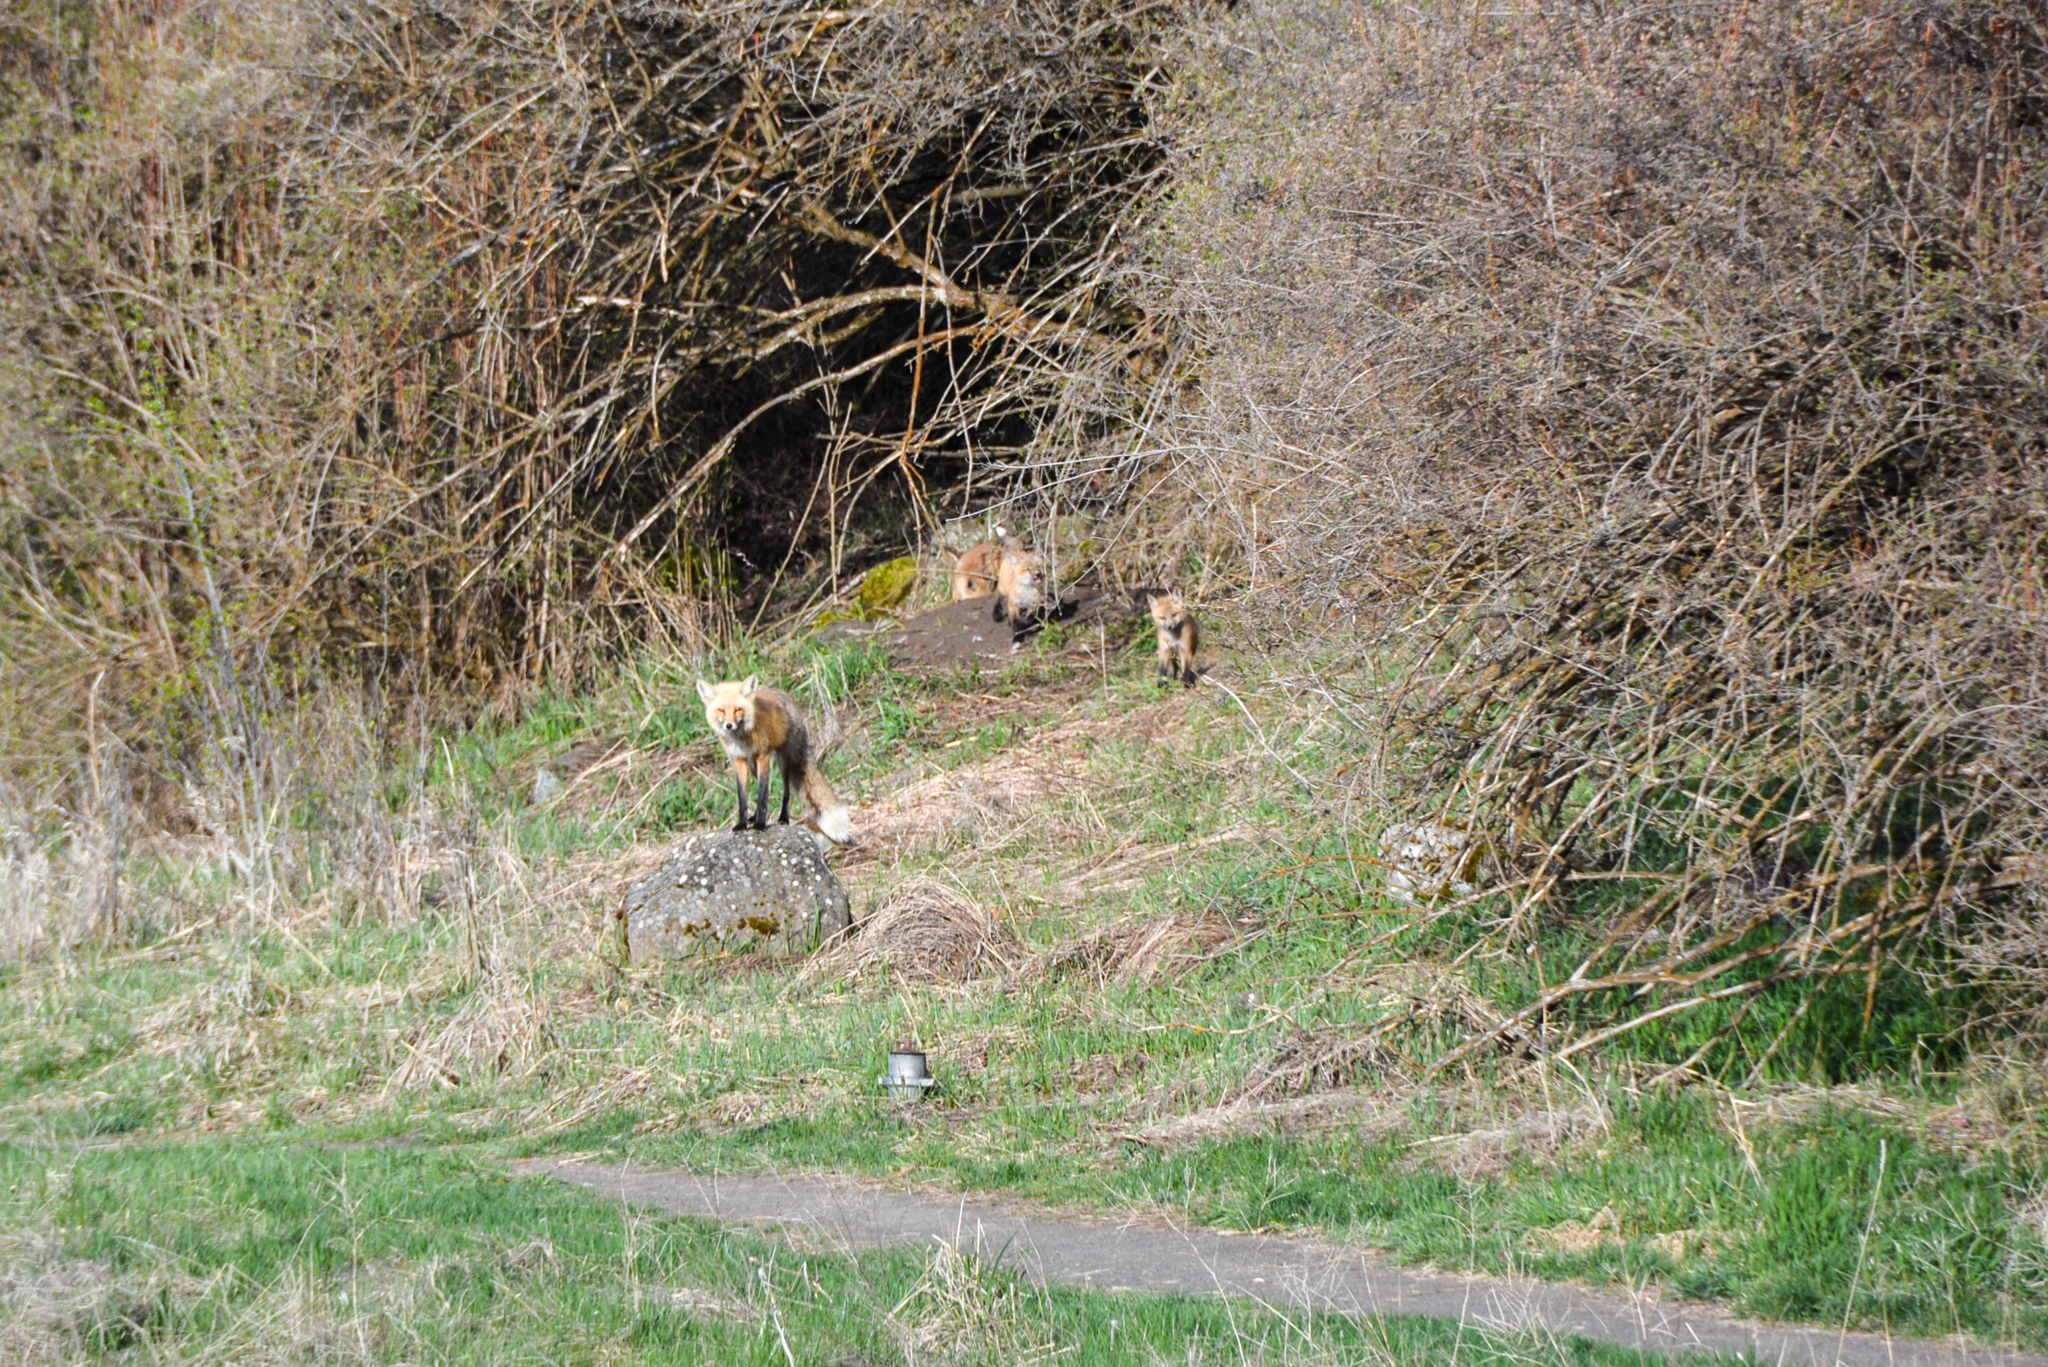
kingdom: Animalia
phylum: Chordata
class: Mammalia
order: Carnivora
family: Canidae
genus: Vulpes
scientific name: Vulpes vulpes
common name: Red fox
